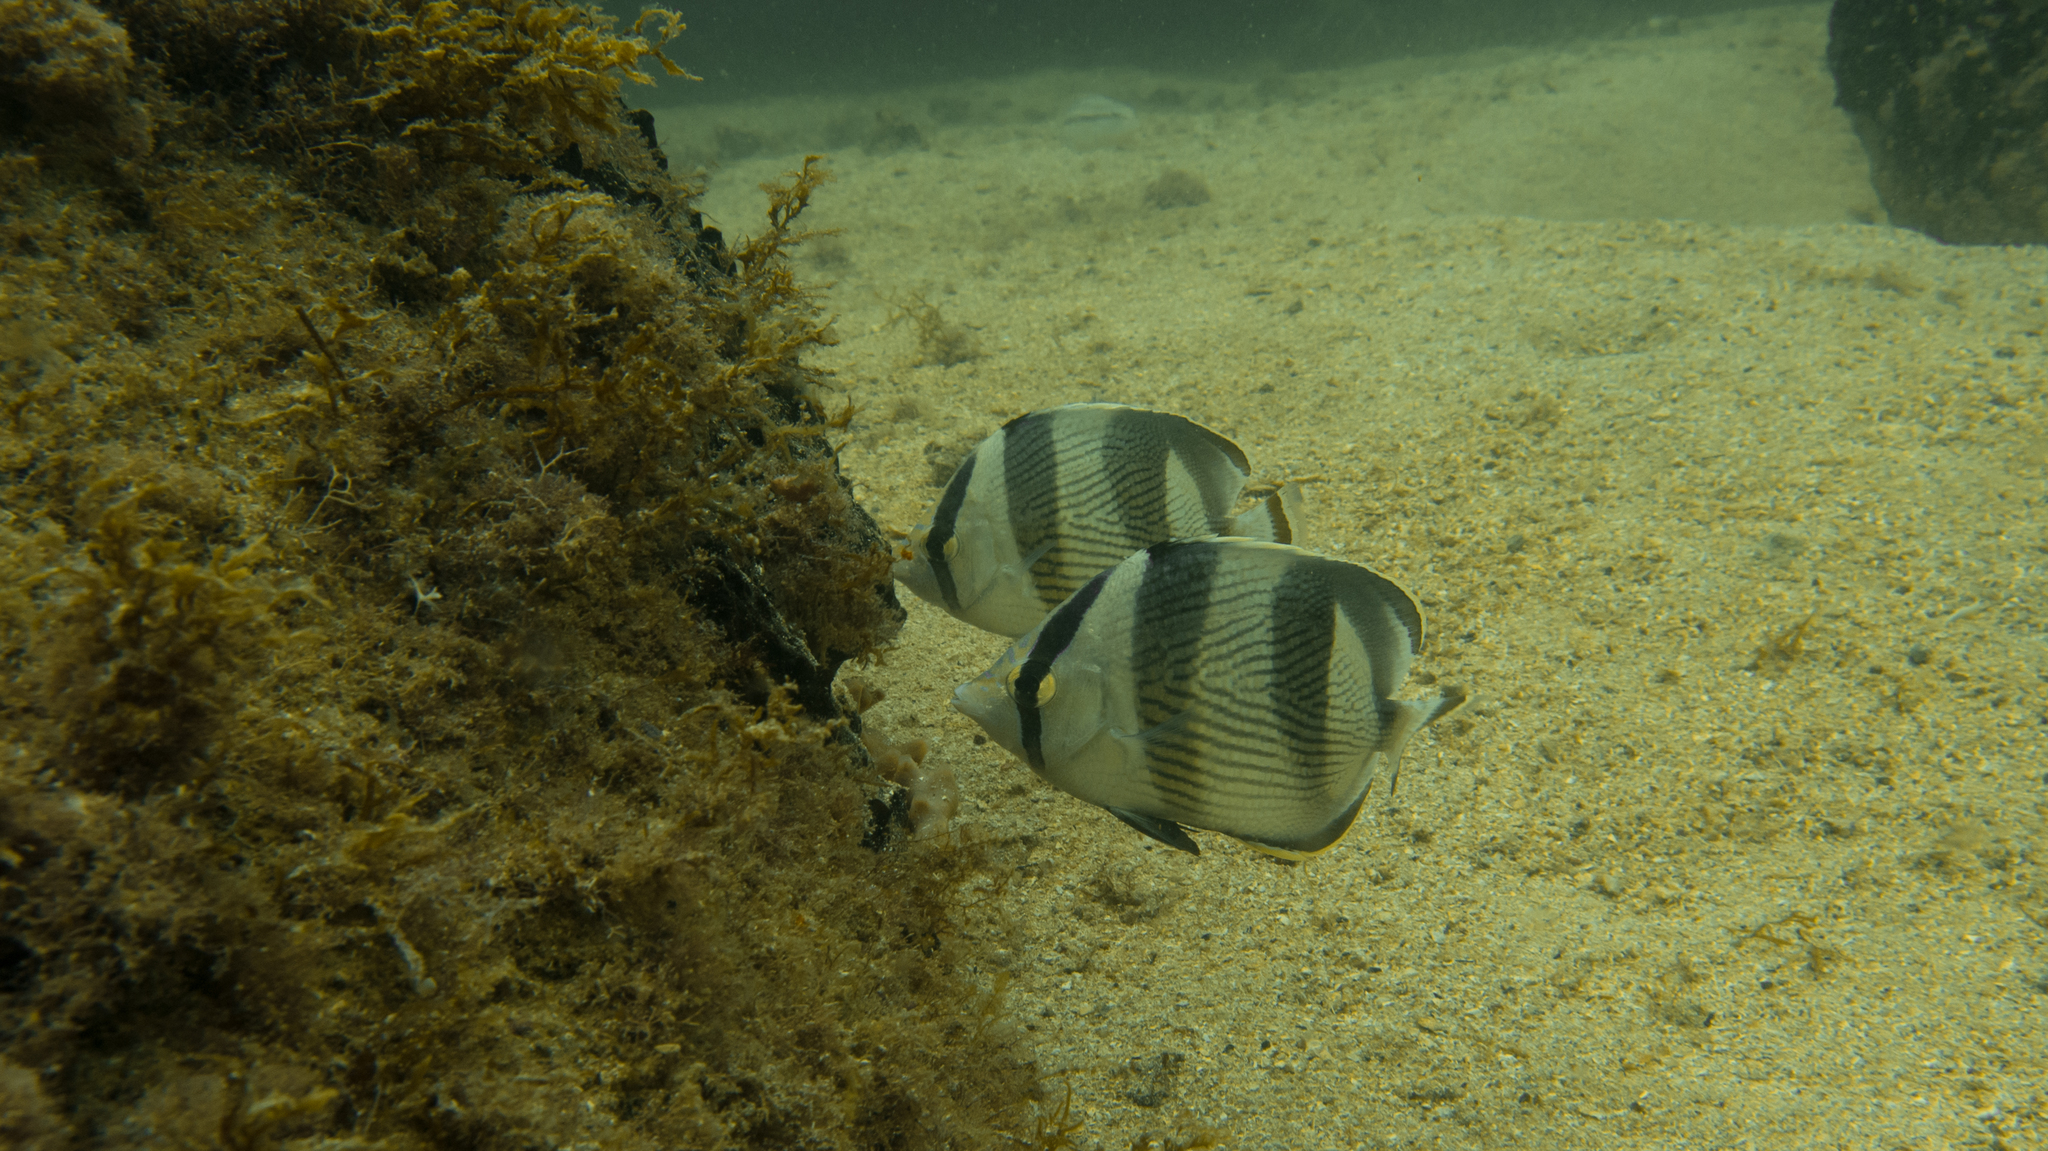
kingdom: Animalia
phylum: Chordata
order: Perciformes
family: Chaetodontidae
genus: Chaetodon
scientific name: Chaetodon striatus
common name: Banded butterflyfish
